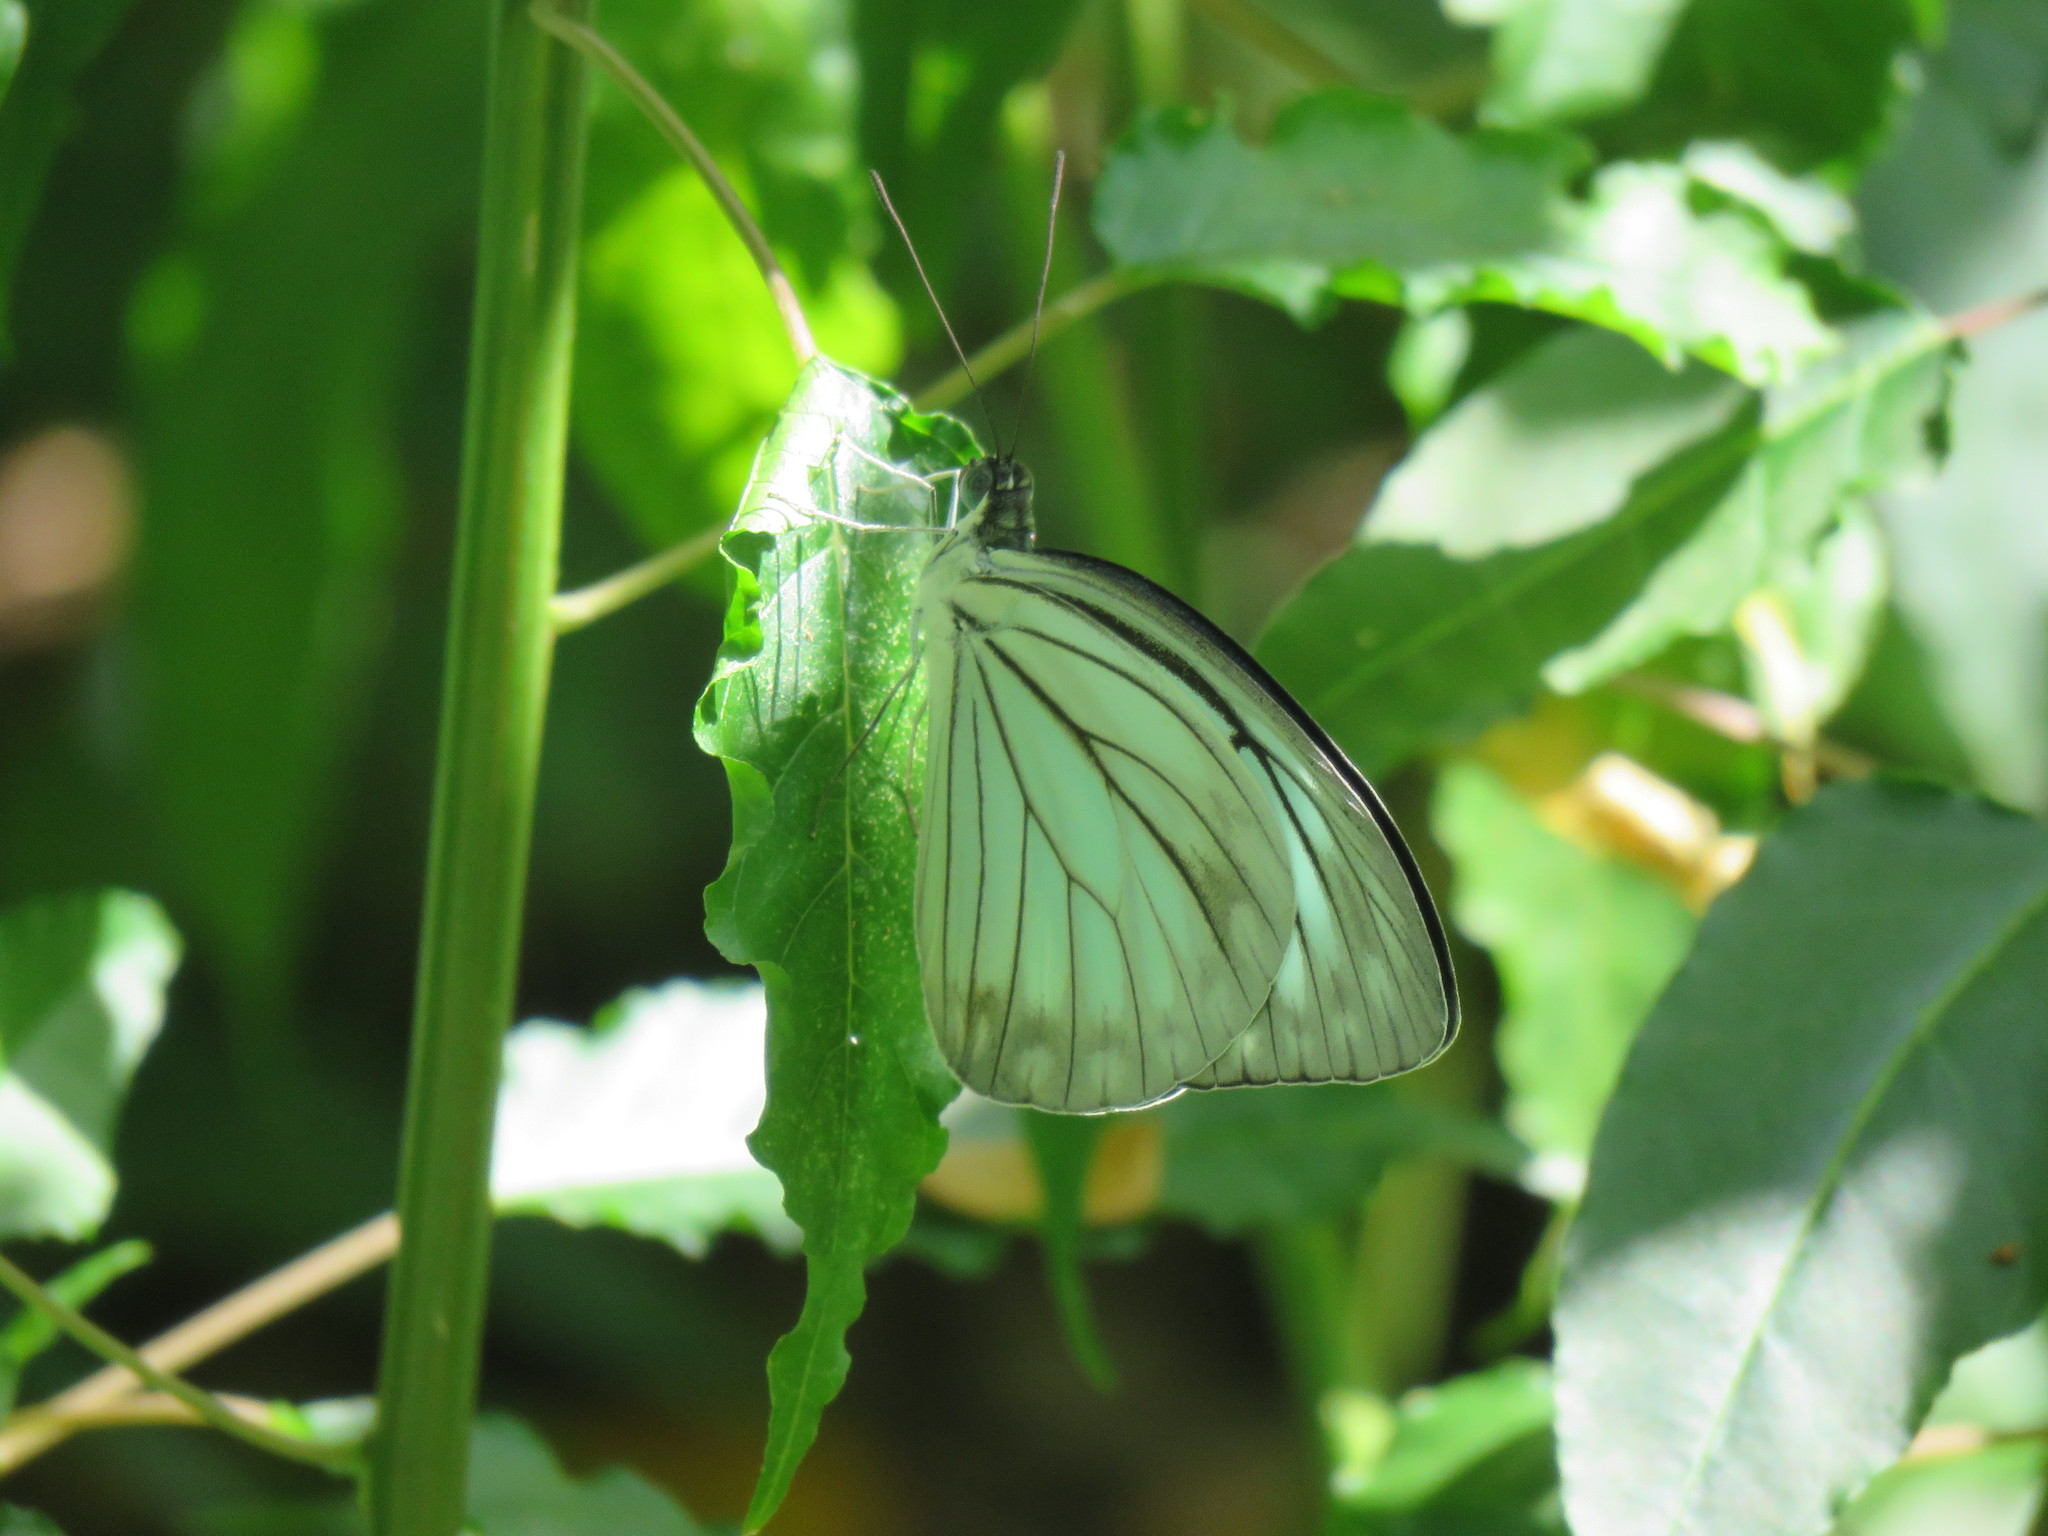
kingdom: Animalia
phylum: Arthropoda
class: Insecta
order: Lepidoptera
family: Pieridae
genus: Pareronia
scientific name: Pareronia hippia
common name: Indian wanderer
